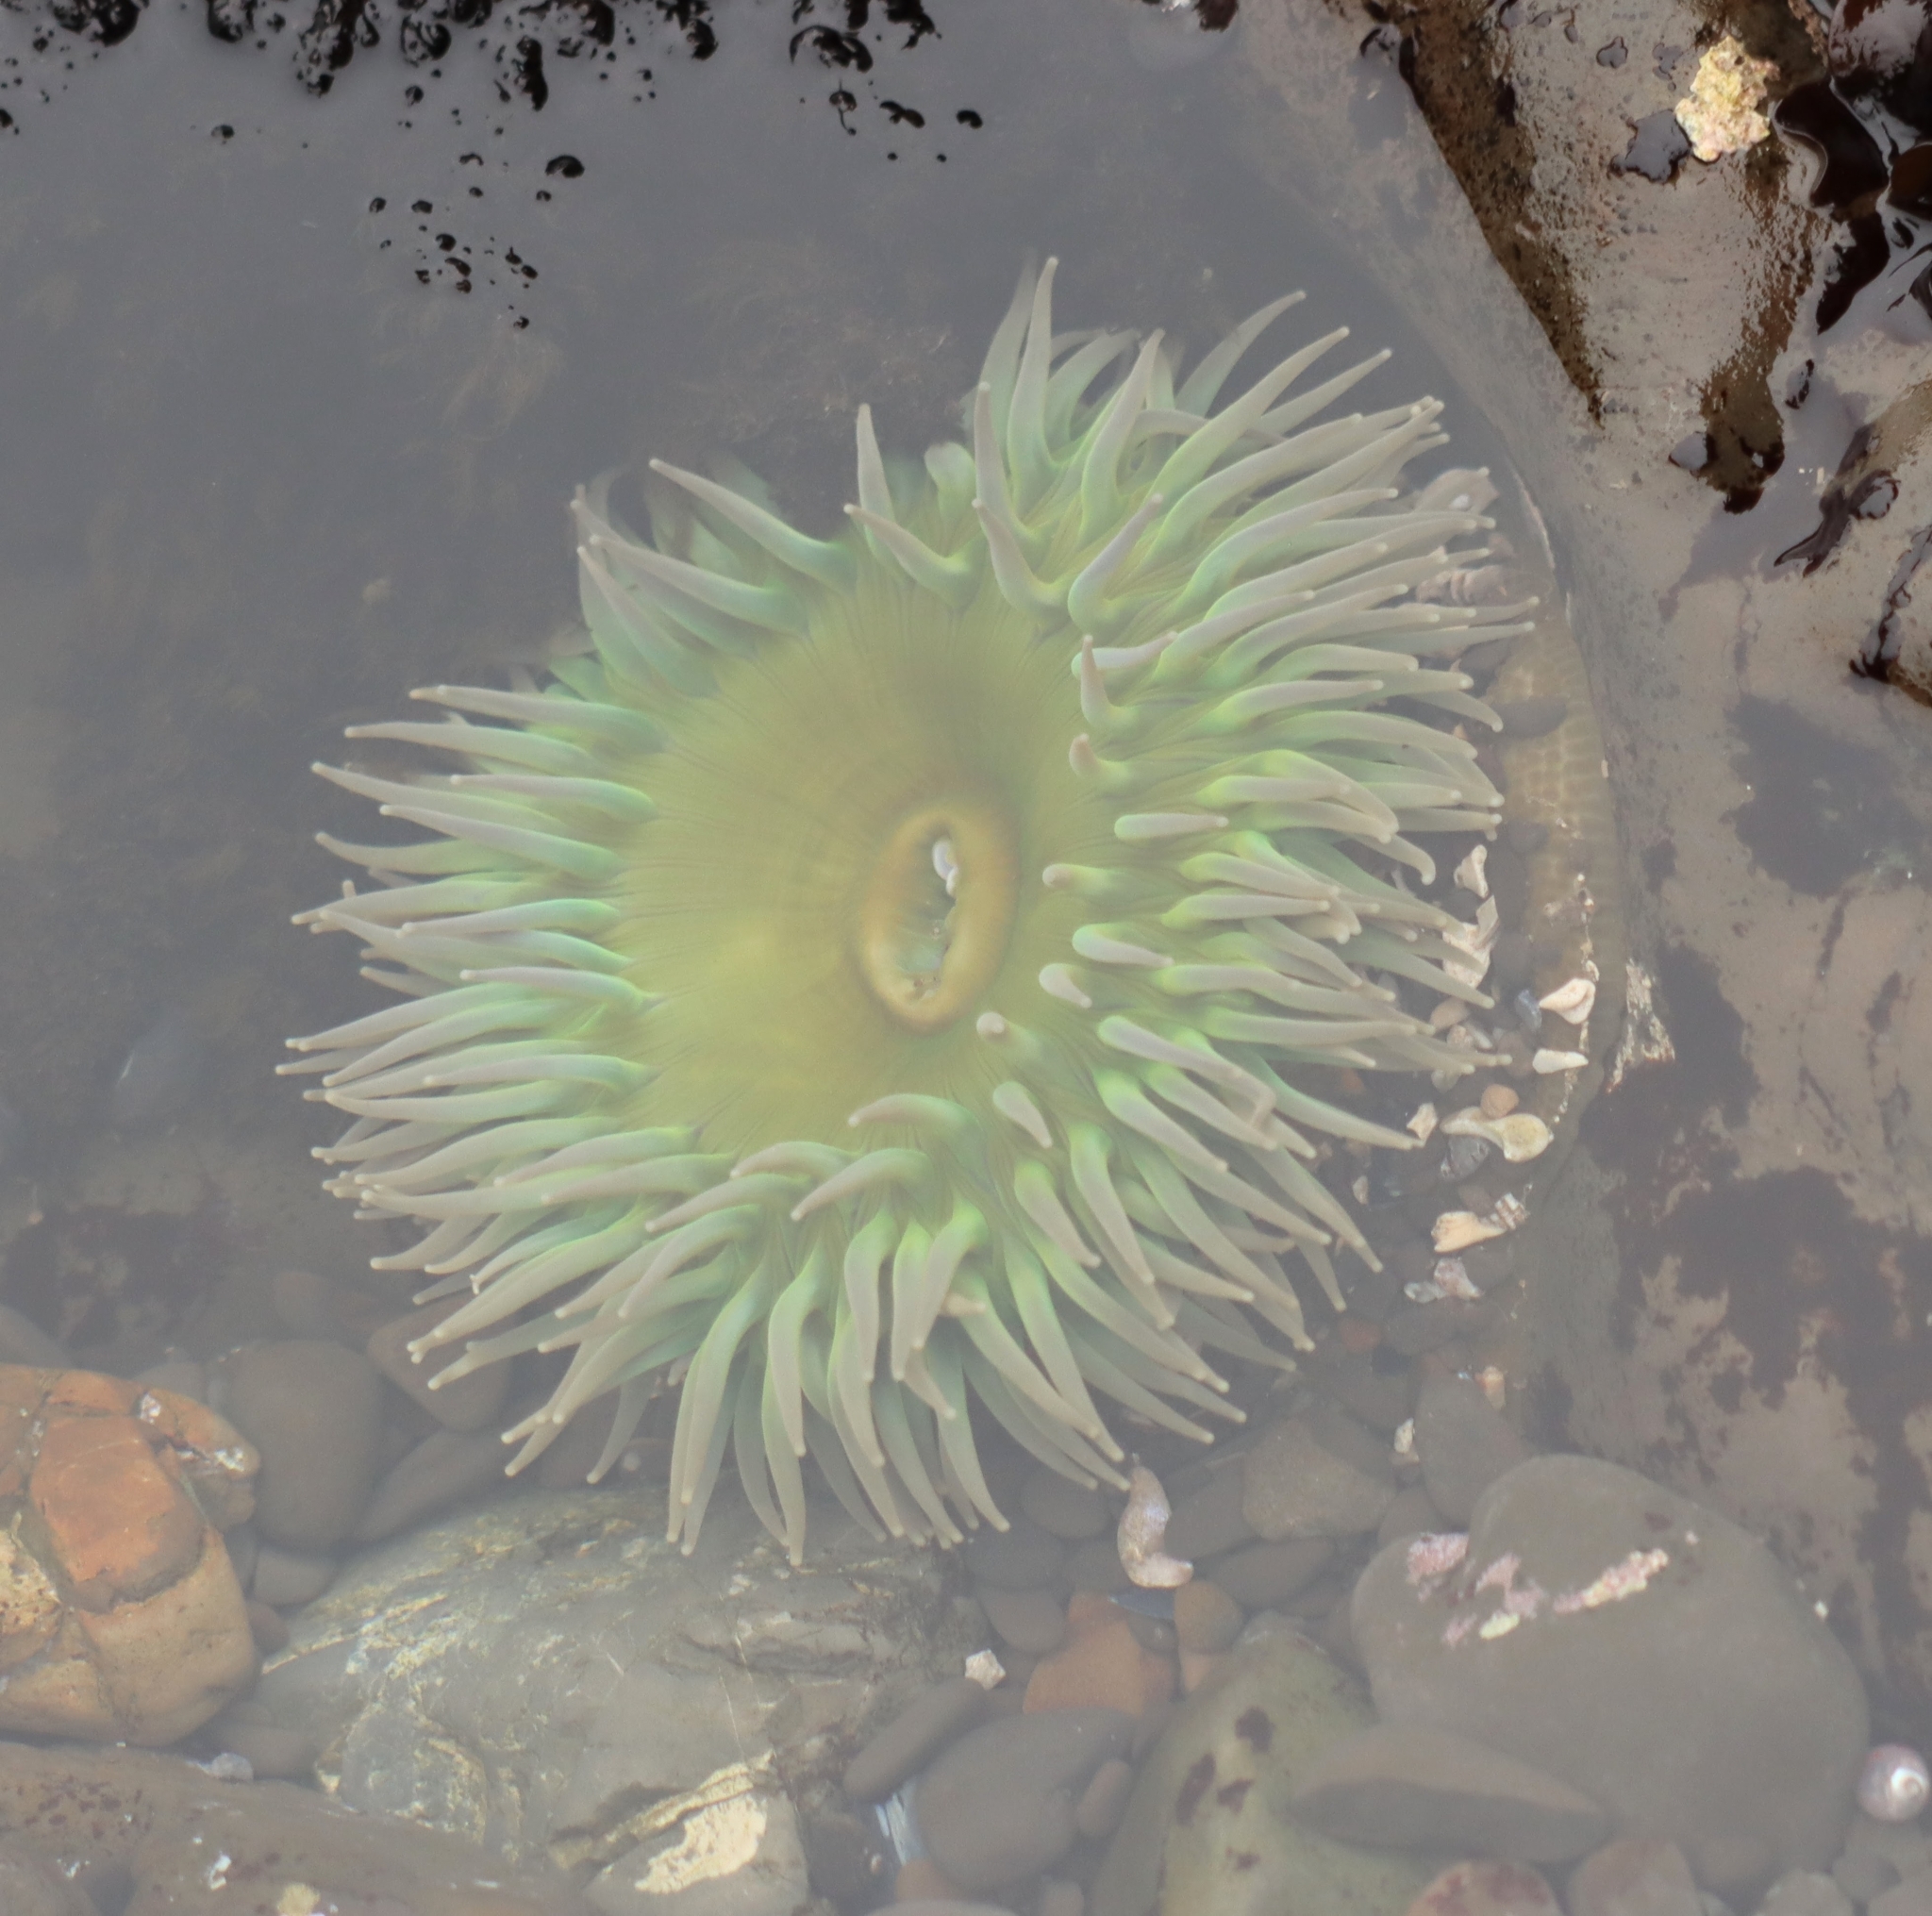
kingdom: Animalia
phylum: Cnidaria
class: Anthozoa
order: Actiniaria
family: Actiniidae
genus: Anthopleura
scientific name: Anthopleura xanthogrammica
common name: Giant green anemone
